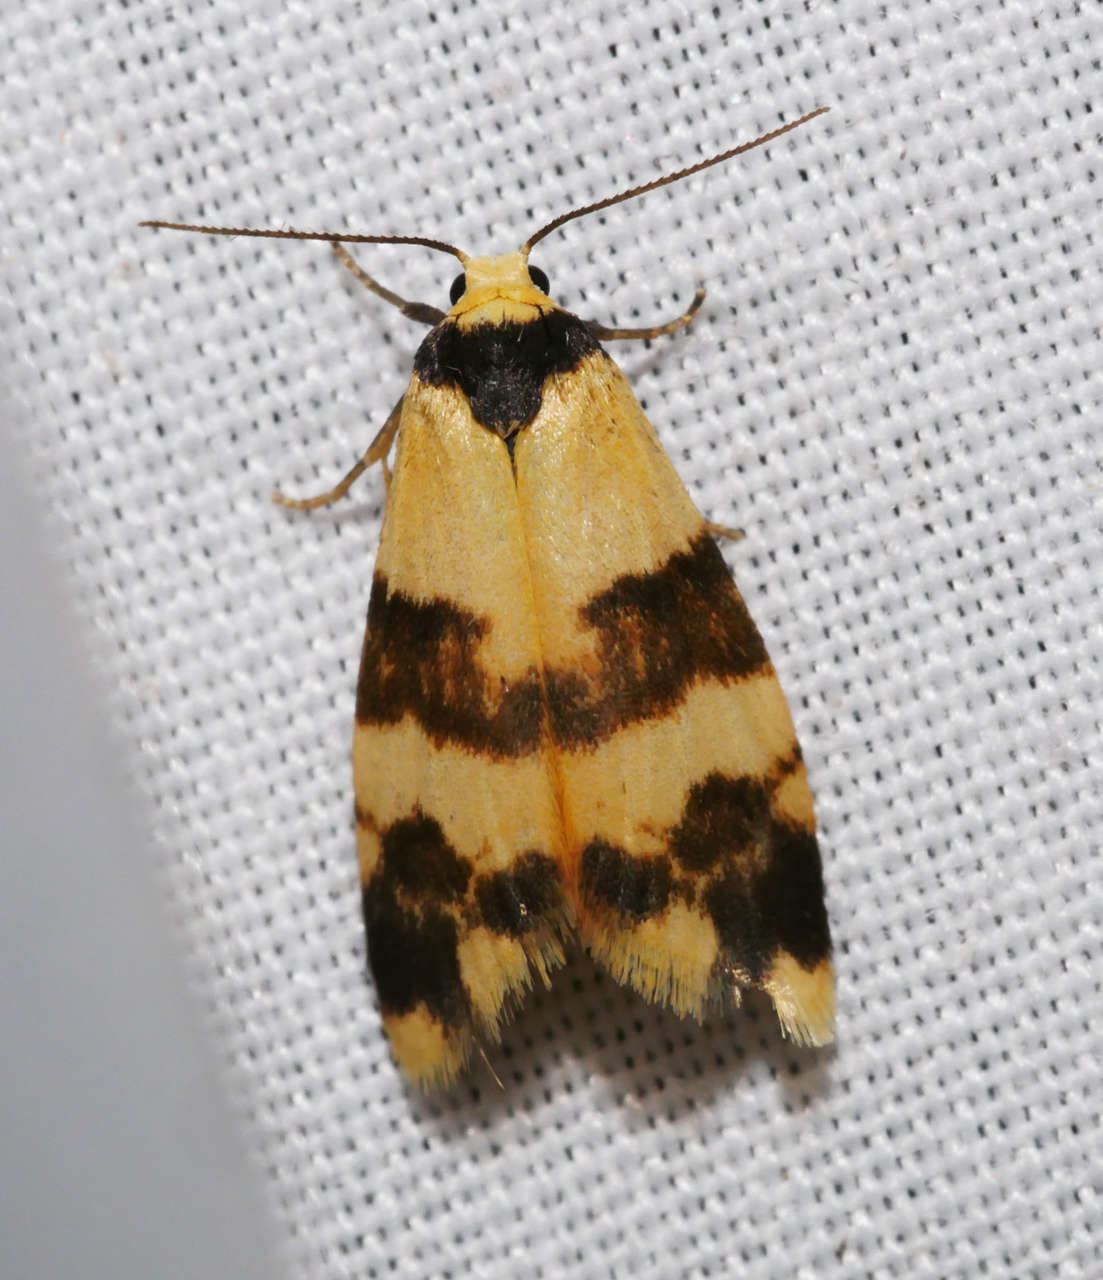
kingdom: Animalia
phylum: Arthropoda
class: Insecta
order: Lepidoptera
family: Erebidae
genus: Thallarcha
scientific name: Thallarcha chrysochares
